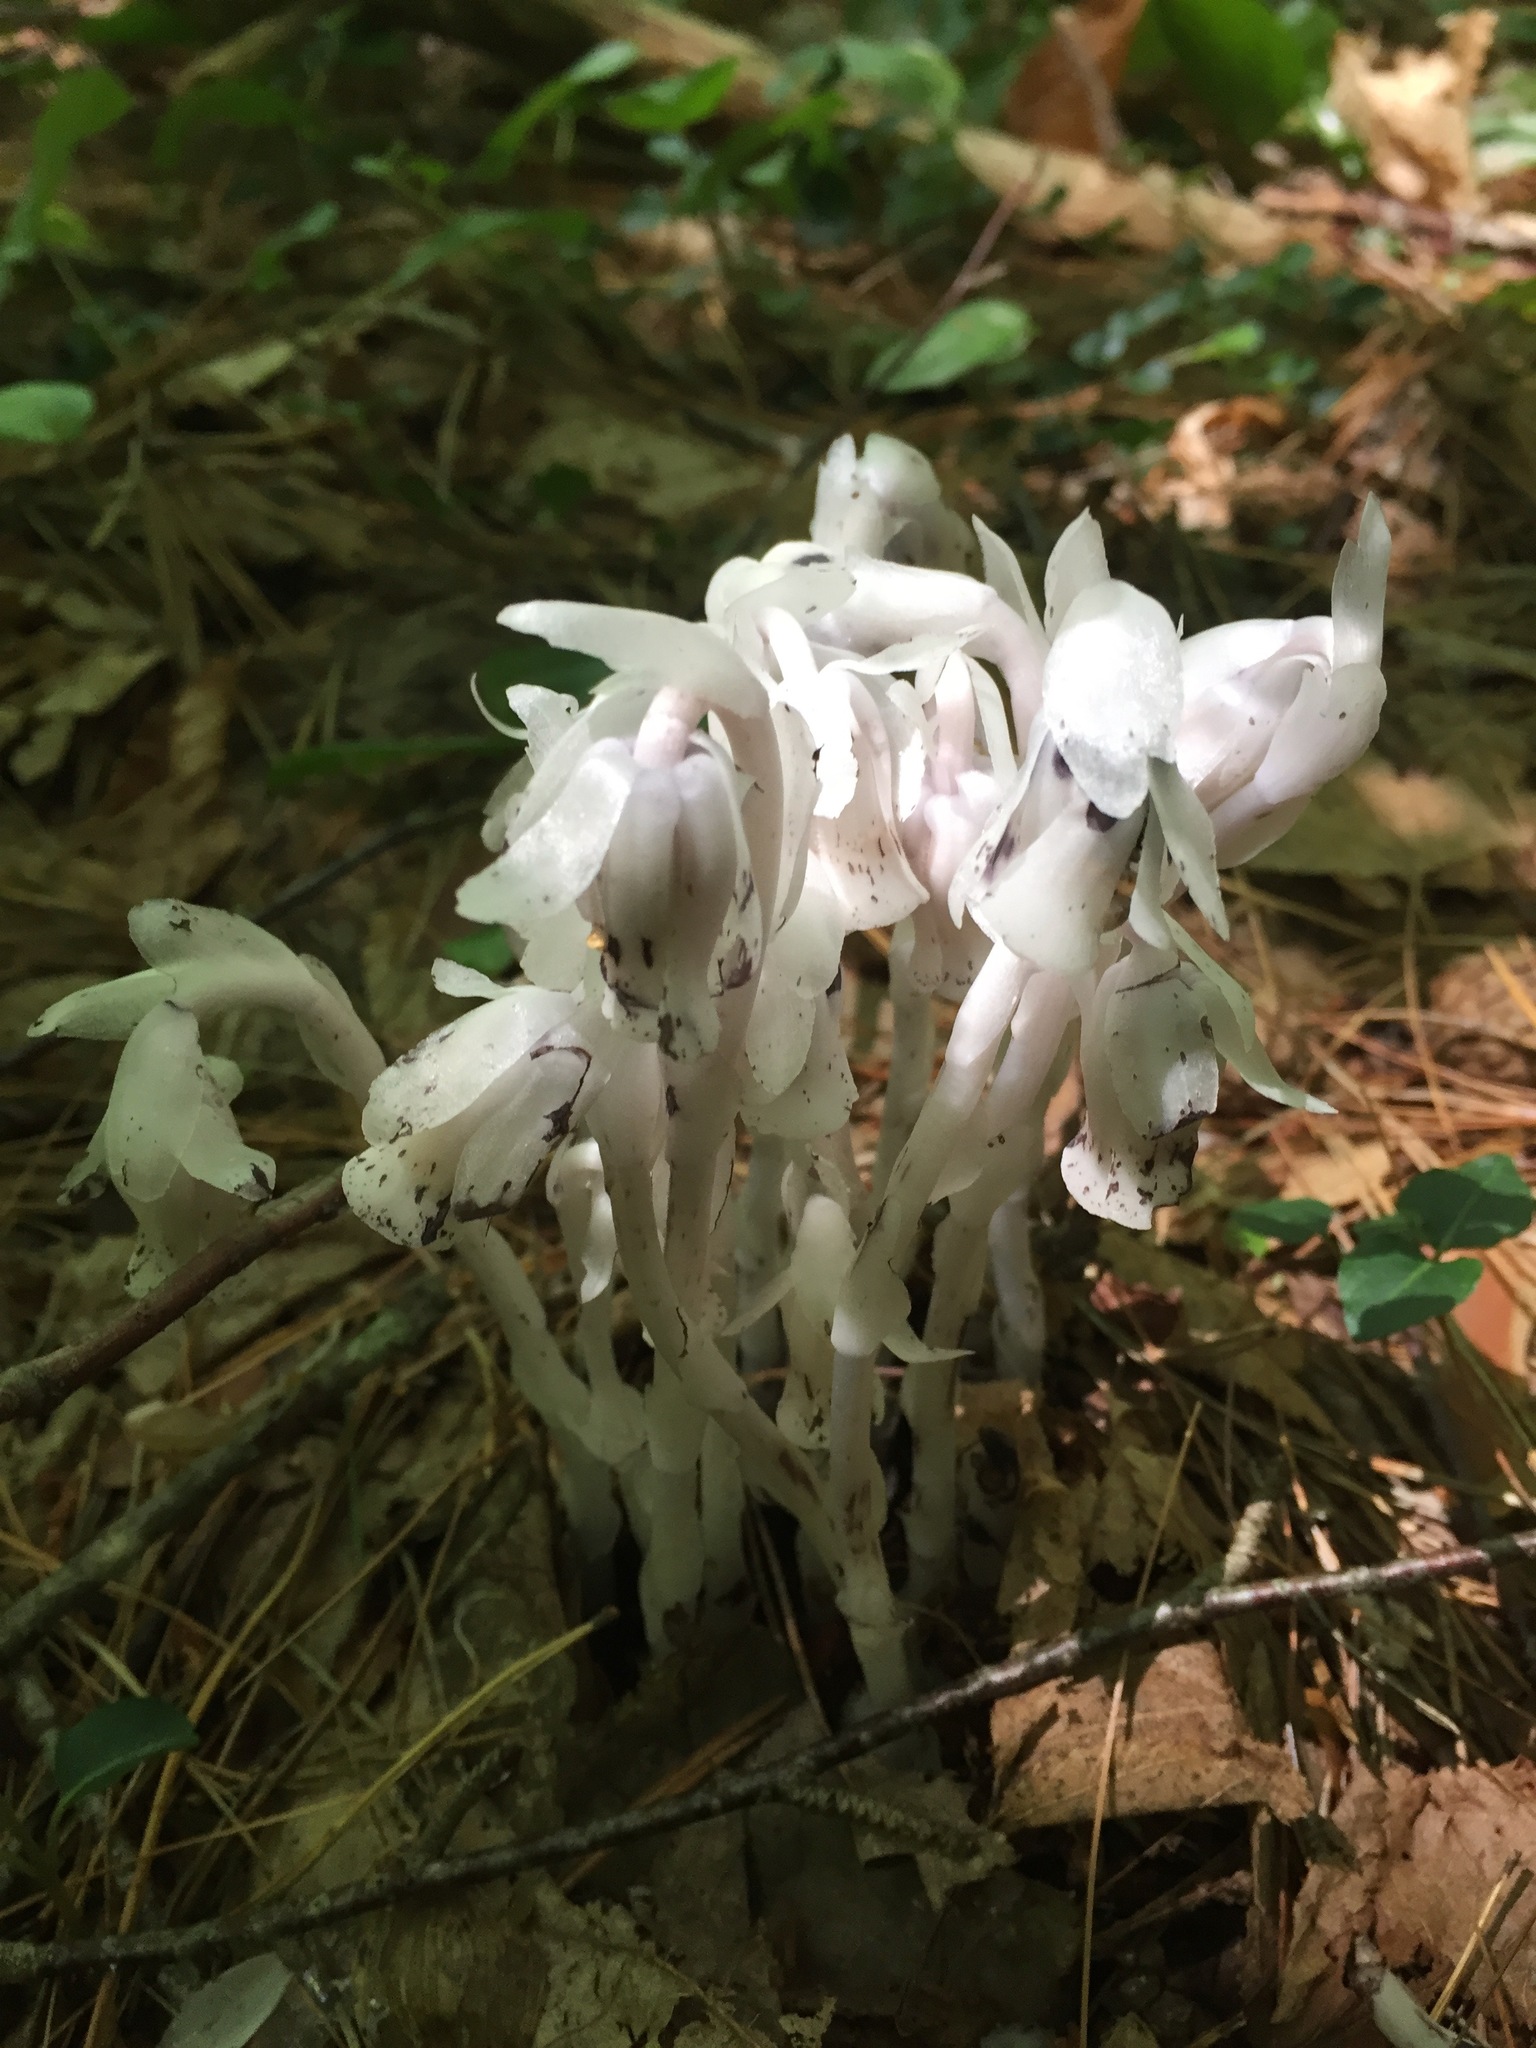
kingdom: Plantae
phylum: Tracheophyta
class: Magnoliopsida
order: Ericales
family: Ericaceae
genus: Monotropa
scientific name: Monotropa uniflora
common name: Convulsion root
